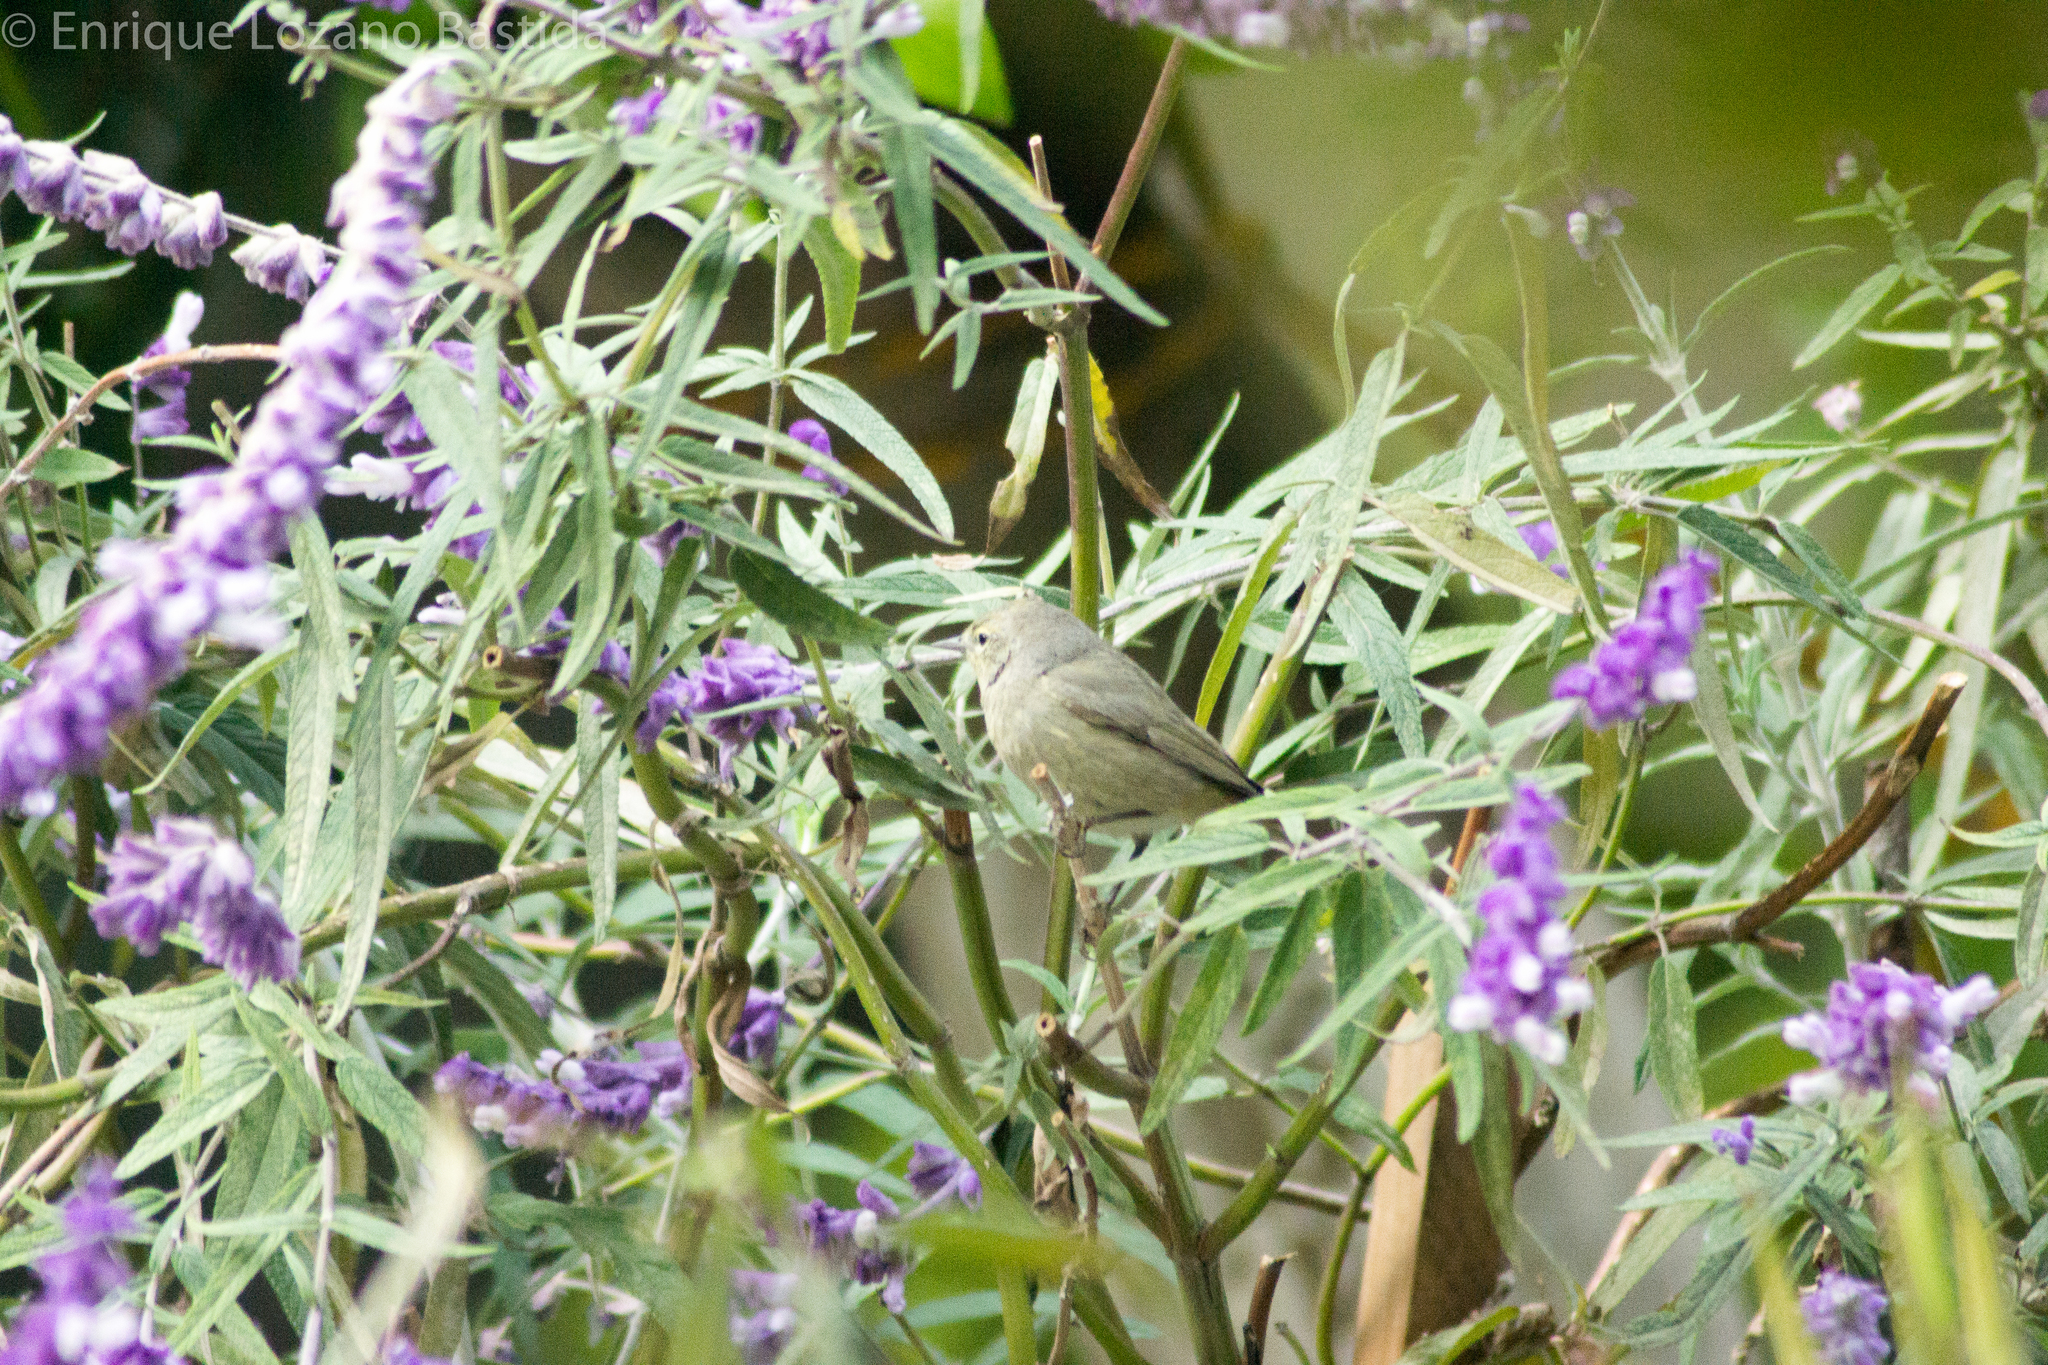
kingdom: Animalia
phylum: Chordata
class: Aves
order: Passeriformes
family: Parulidae
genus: Leiothlypis
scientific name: Leiothlypis celata
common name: Orange-crowned warbler
